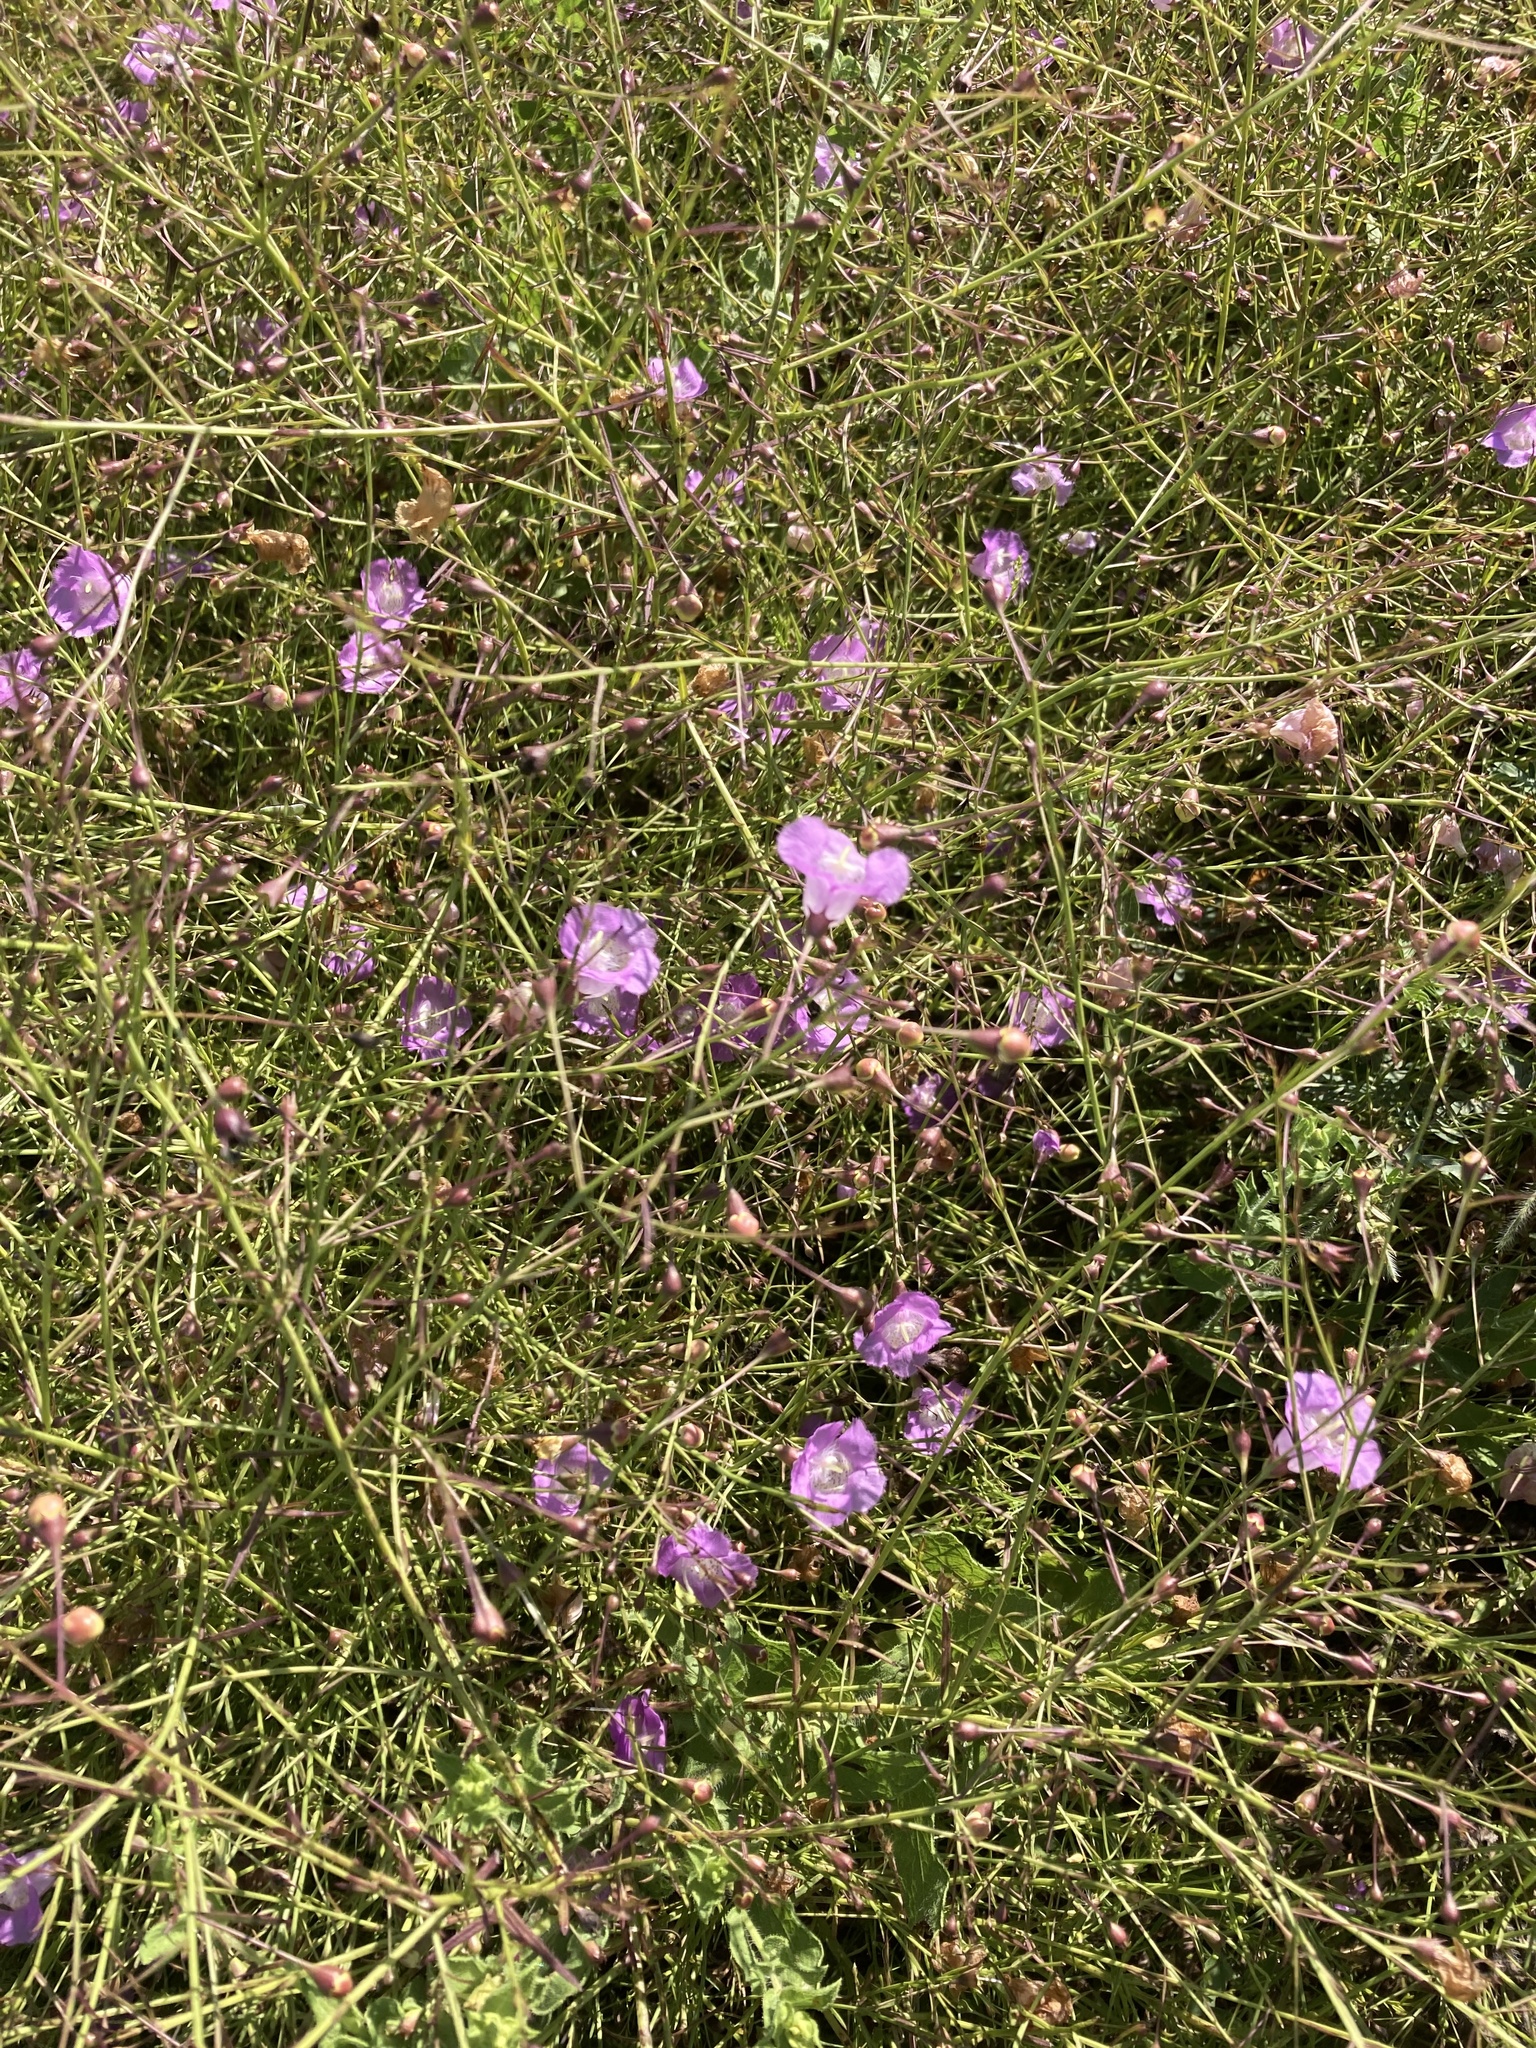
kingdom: Plantae
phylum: Tracheophyta
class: Magnoliopsida
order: Lamiales
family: Orobanchaceae
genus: Agalinis
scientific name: Agalinis strictifolia
